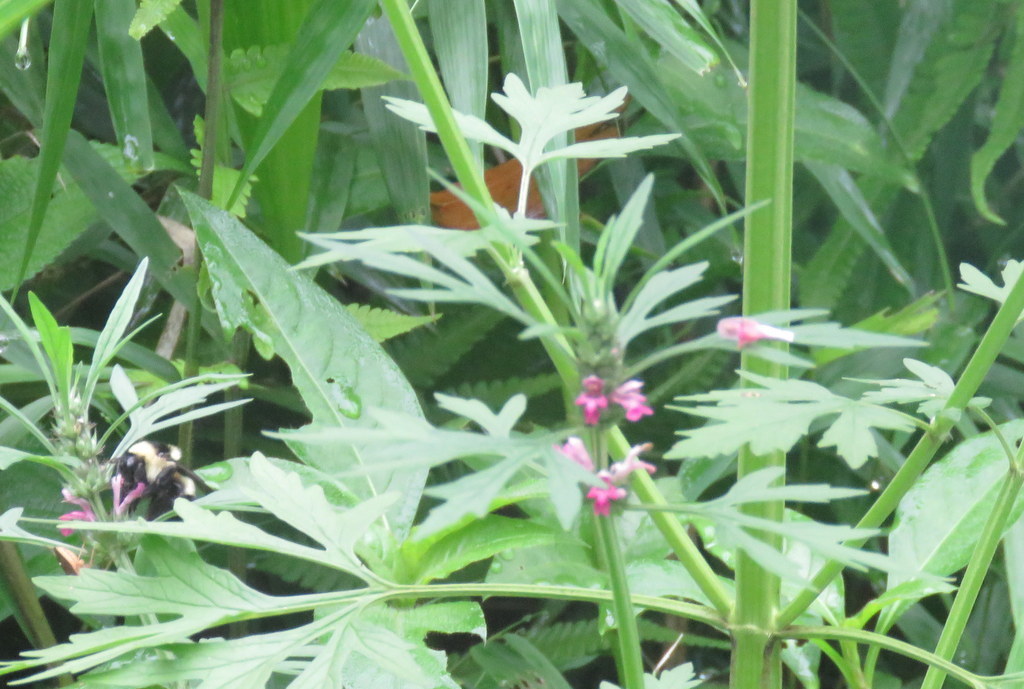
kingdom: Plantae
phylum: Tracheophyta
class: Magnoliopsida
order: Lamiales
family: Lamiaceae
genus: Leonurus
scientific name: Leonurus sibiricus
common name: Honeyweed
